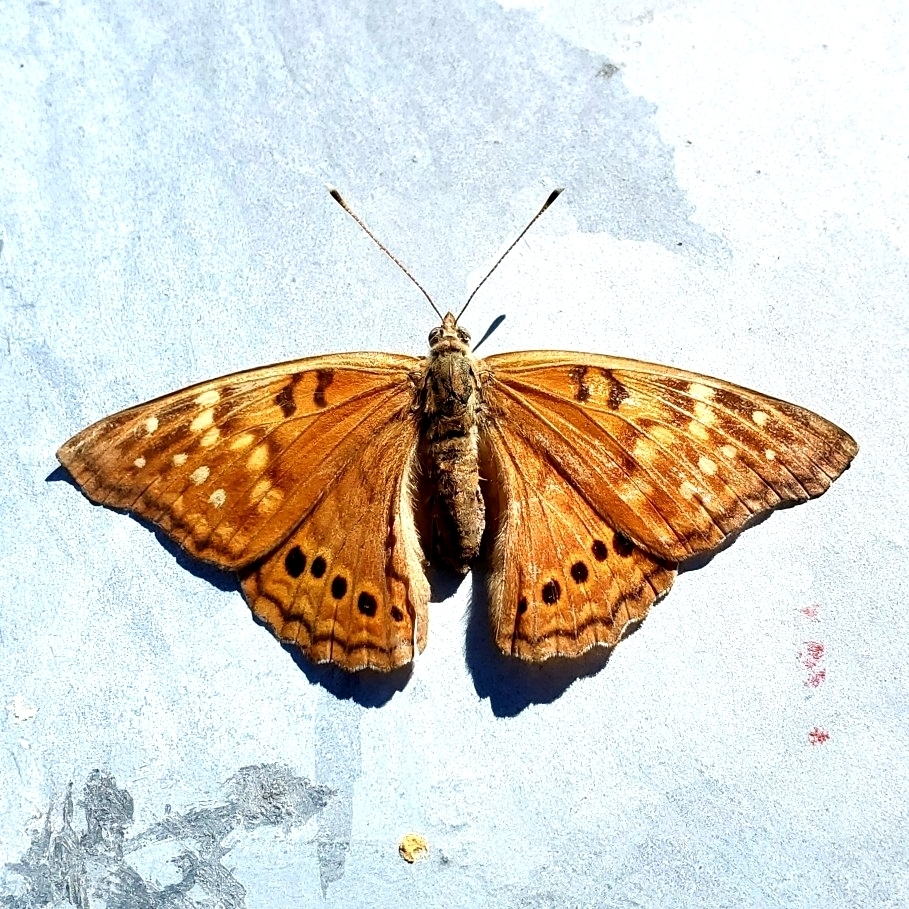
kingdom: Animalia
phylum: Arthropoda
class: Insecta
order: Lepidoptera
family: Nymphalidae
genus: Asterocampa
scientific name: Asterocampa clyton
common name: Tawny emperor
